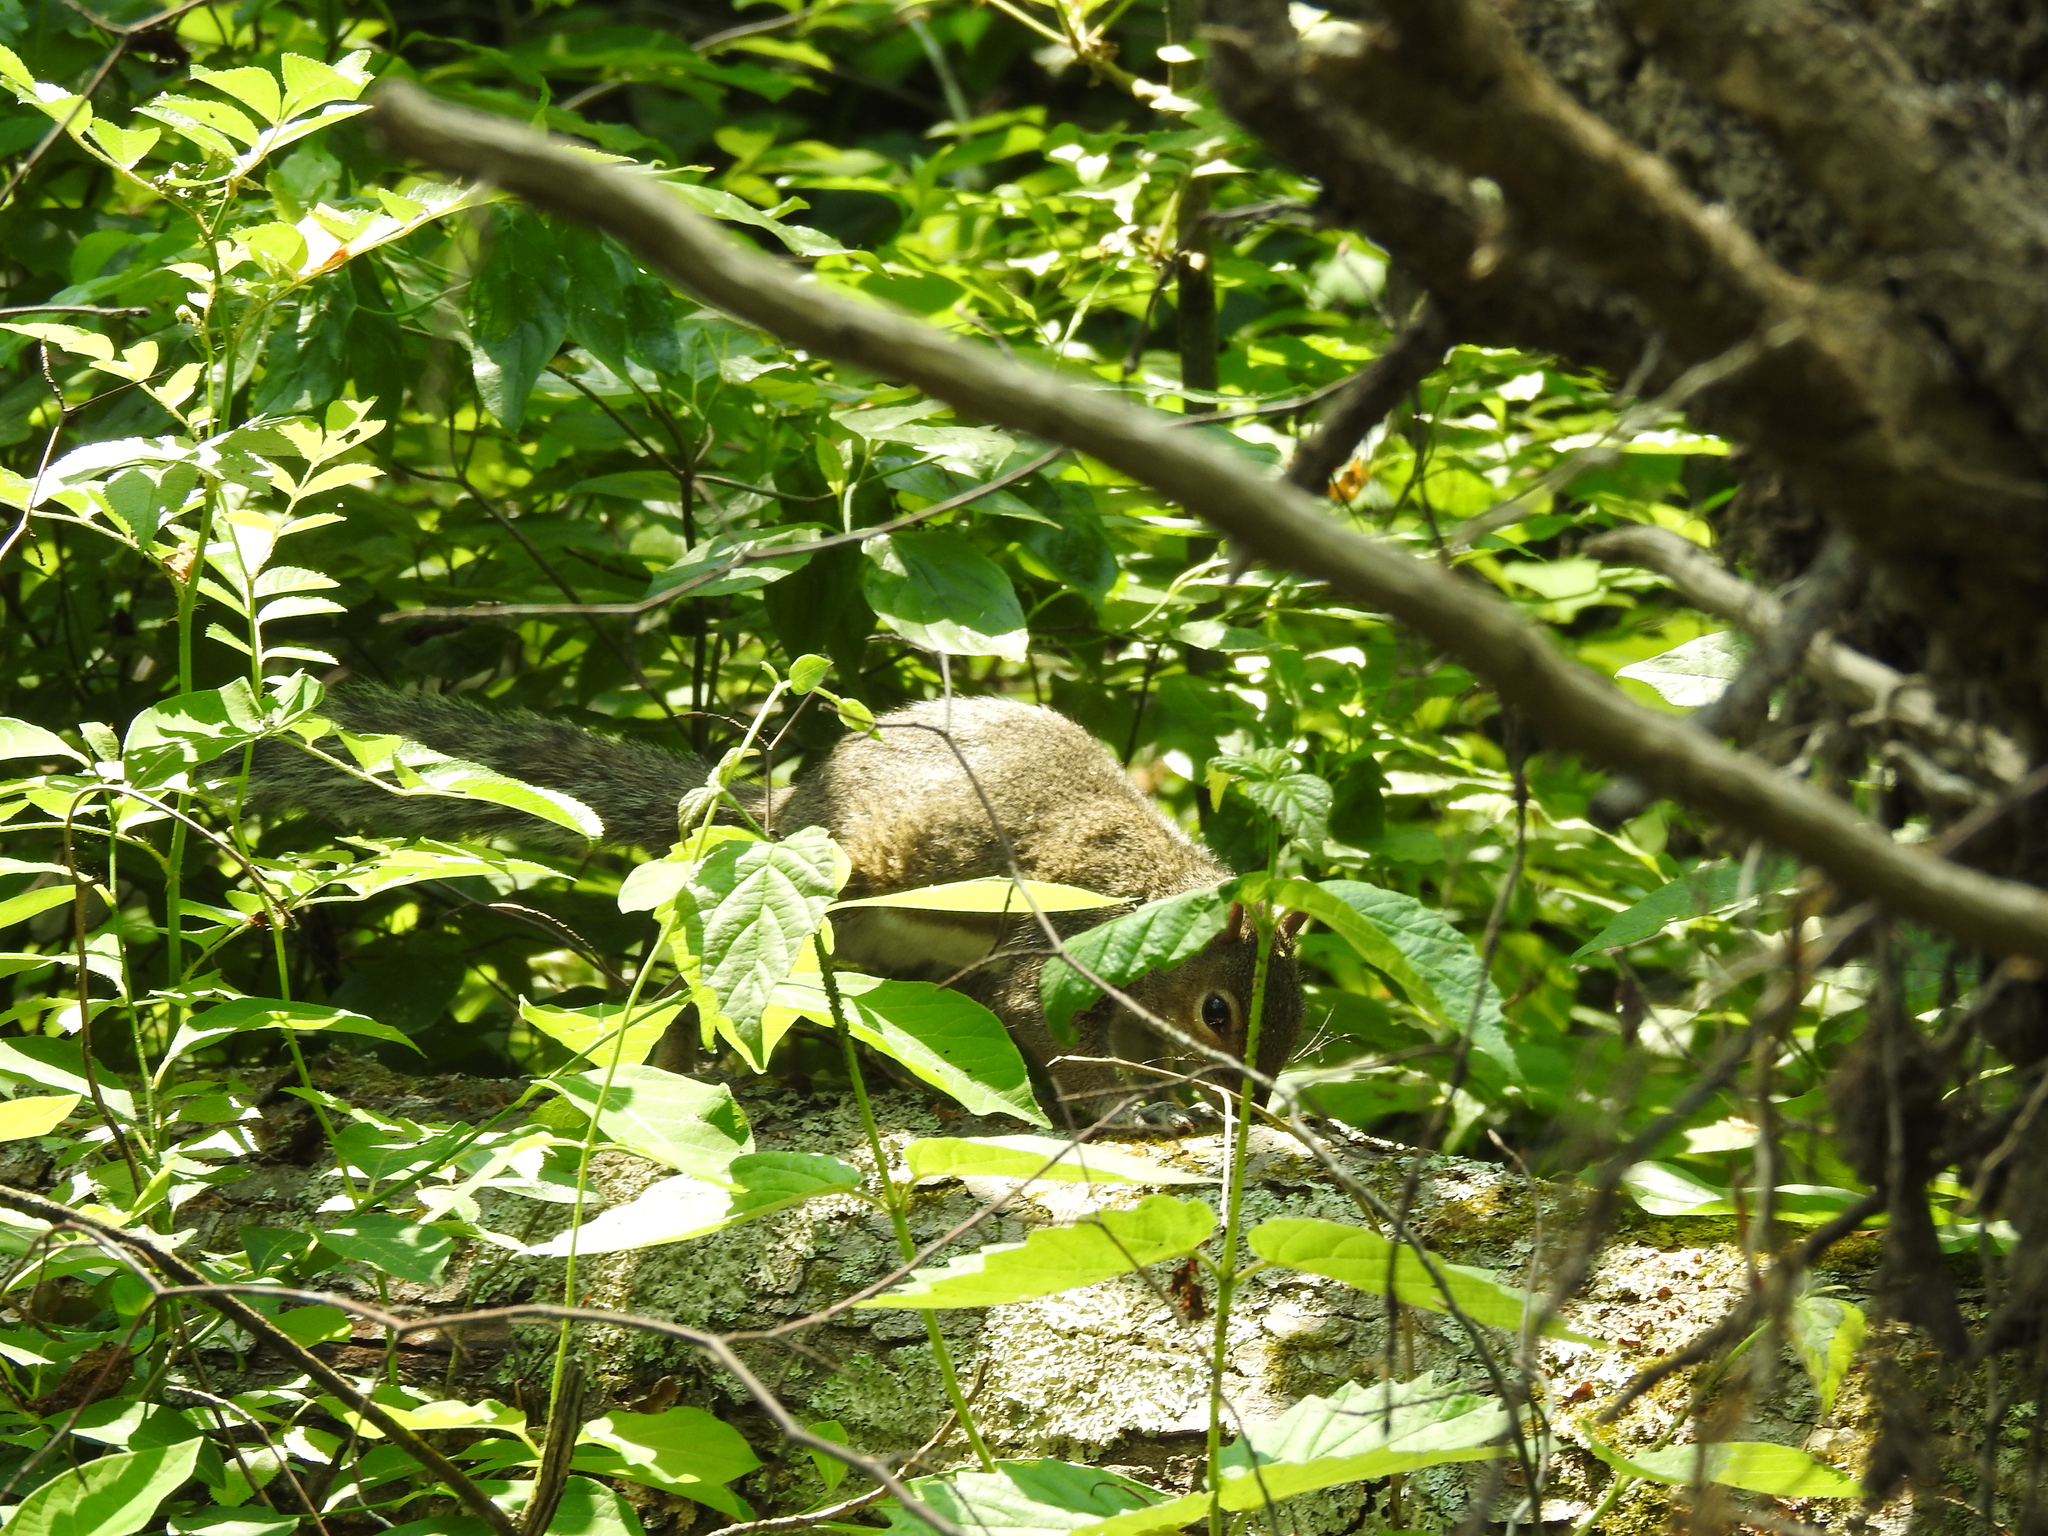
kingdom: Animalia
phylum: Chordata
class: Mammalia
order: Rodentia
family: Sciuridae
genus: Sciurus
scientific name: Sciurus carolinensis
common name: Eastern gray squirrel
